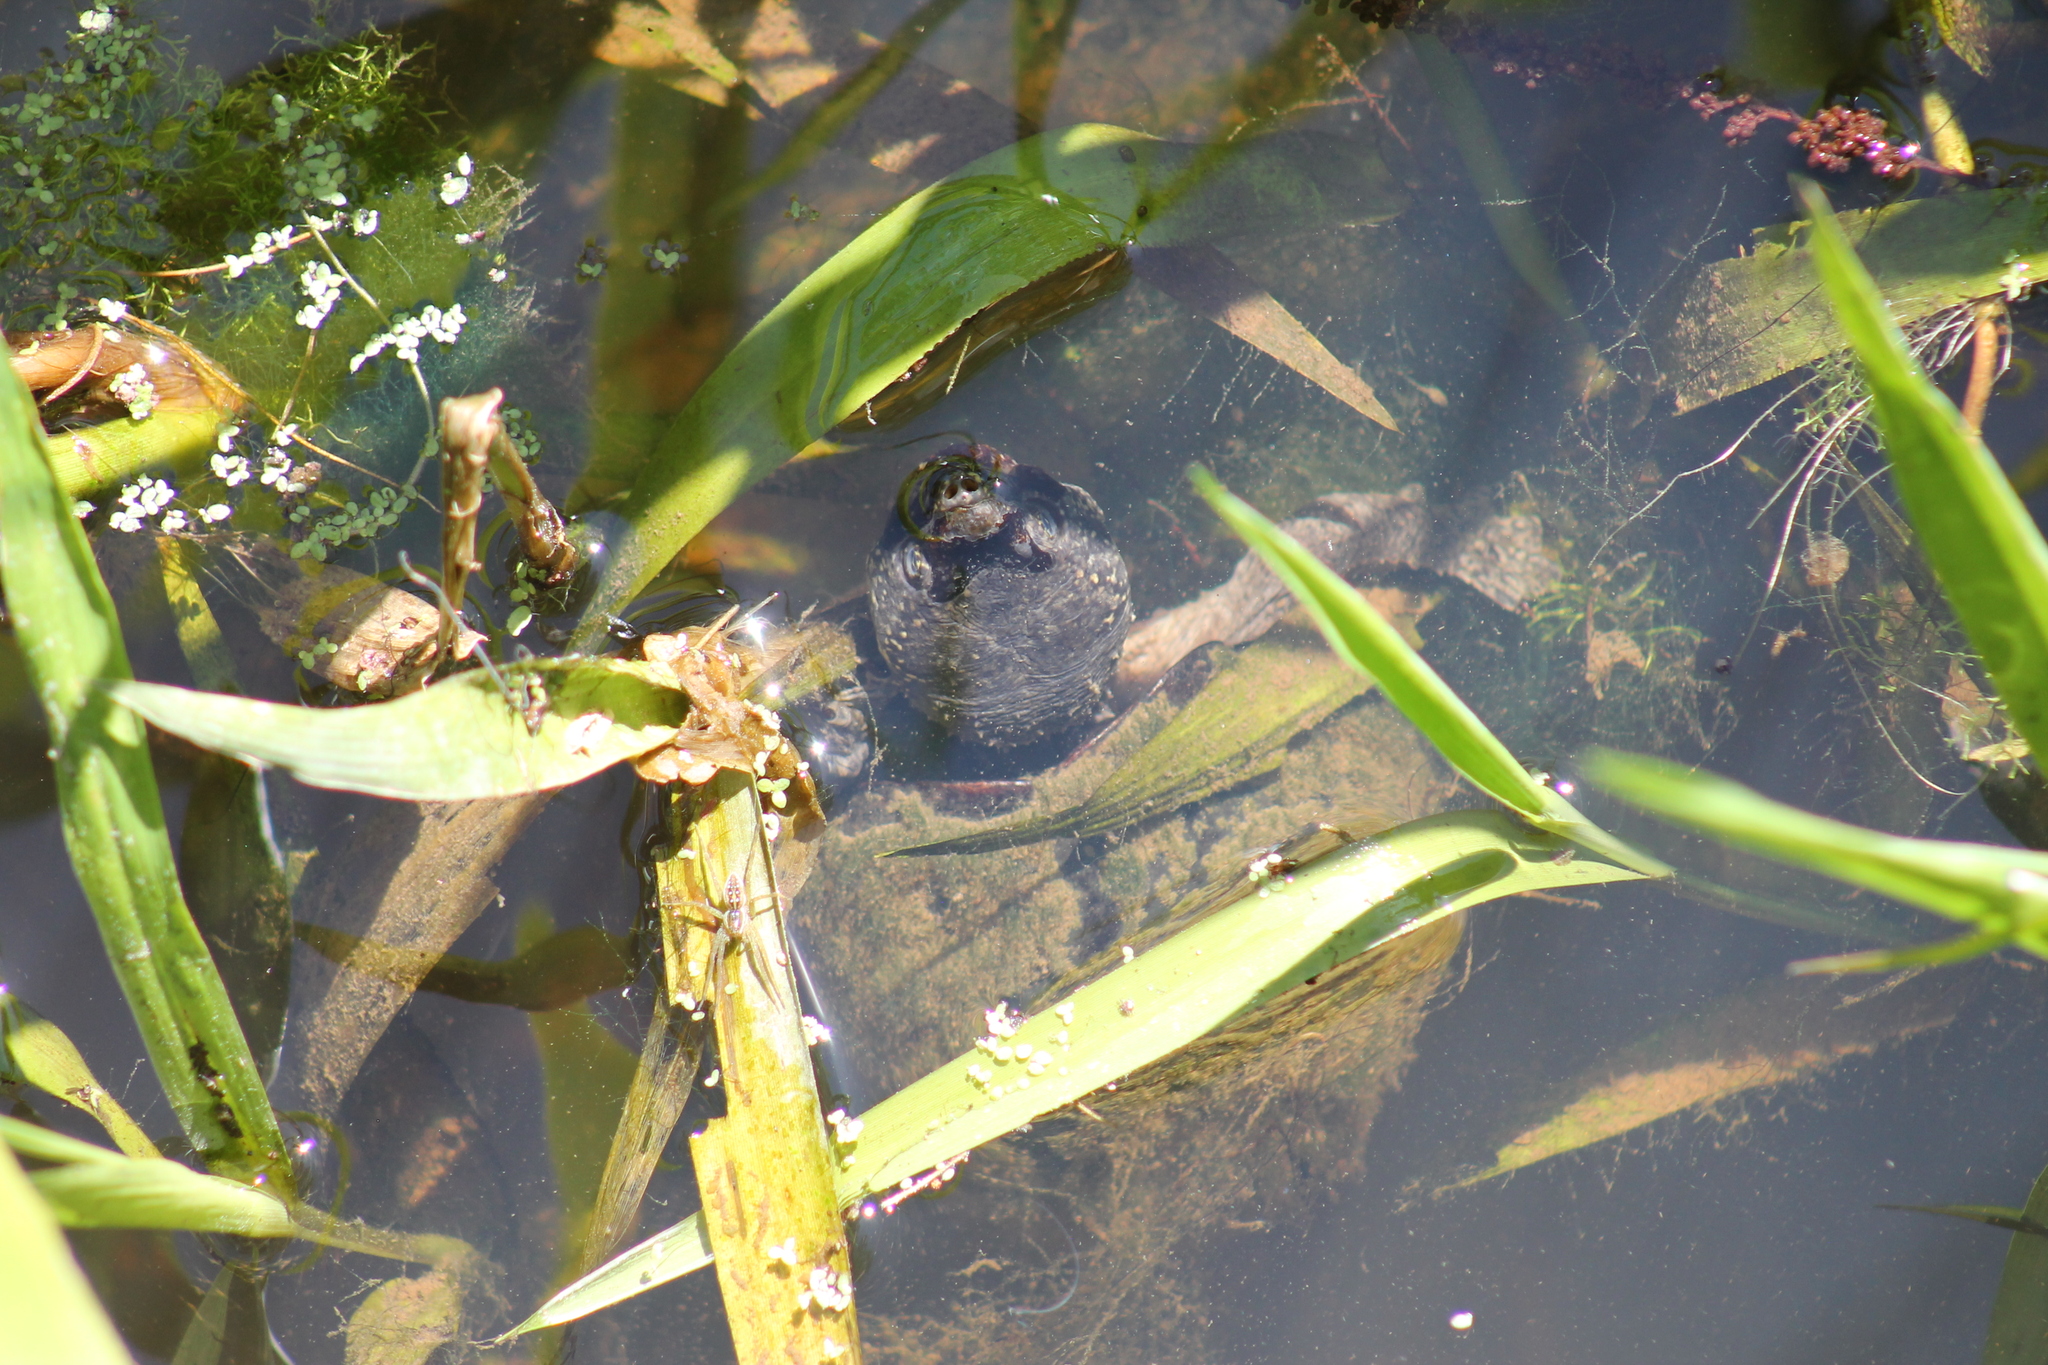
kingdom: Animalia
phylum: Chordata
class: Testudines
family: Kinosternidae
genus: Sternotherus
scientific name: Sternotherus odoratus
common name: Common musk turtle
